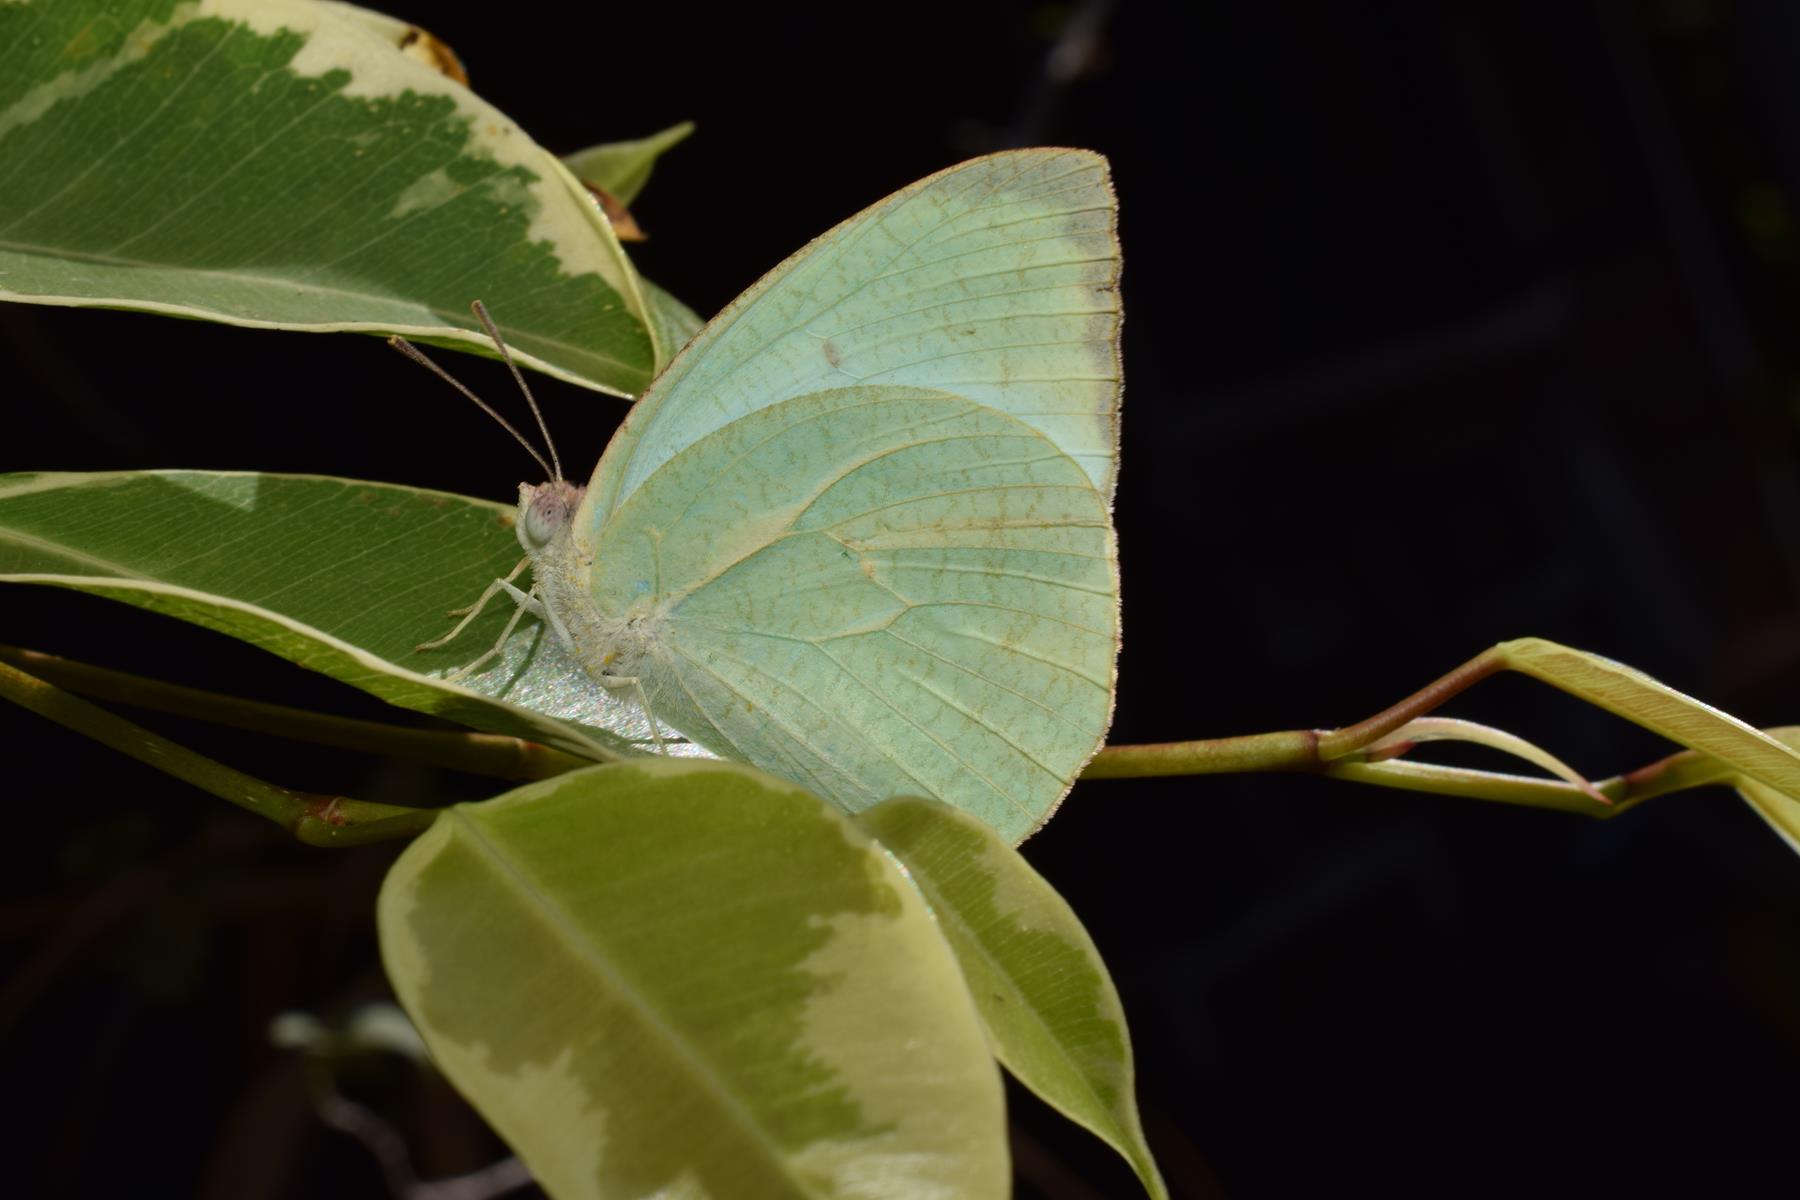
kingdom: Animalia
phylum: Arthropoda
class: Insecta
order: Lepidoptera
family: Pieridae
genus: Catopsilia
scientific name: Catopsilia pyranthe
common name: Mottled emigrant
